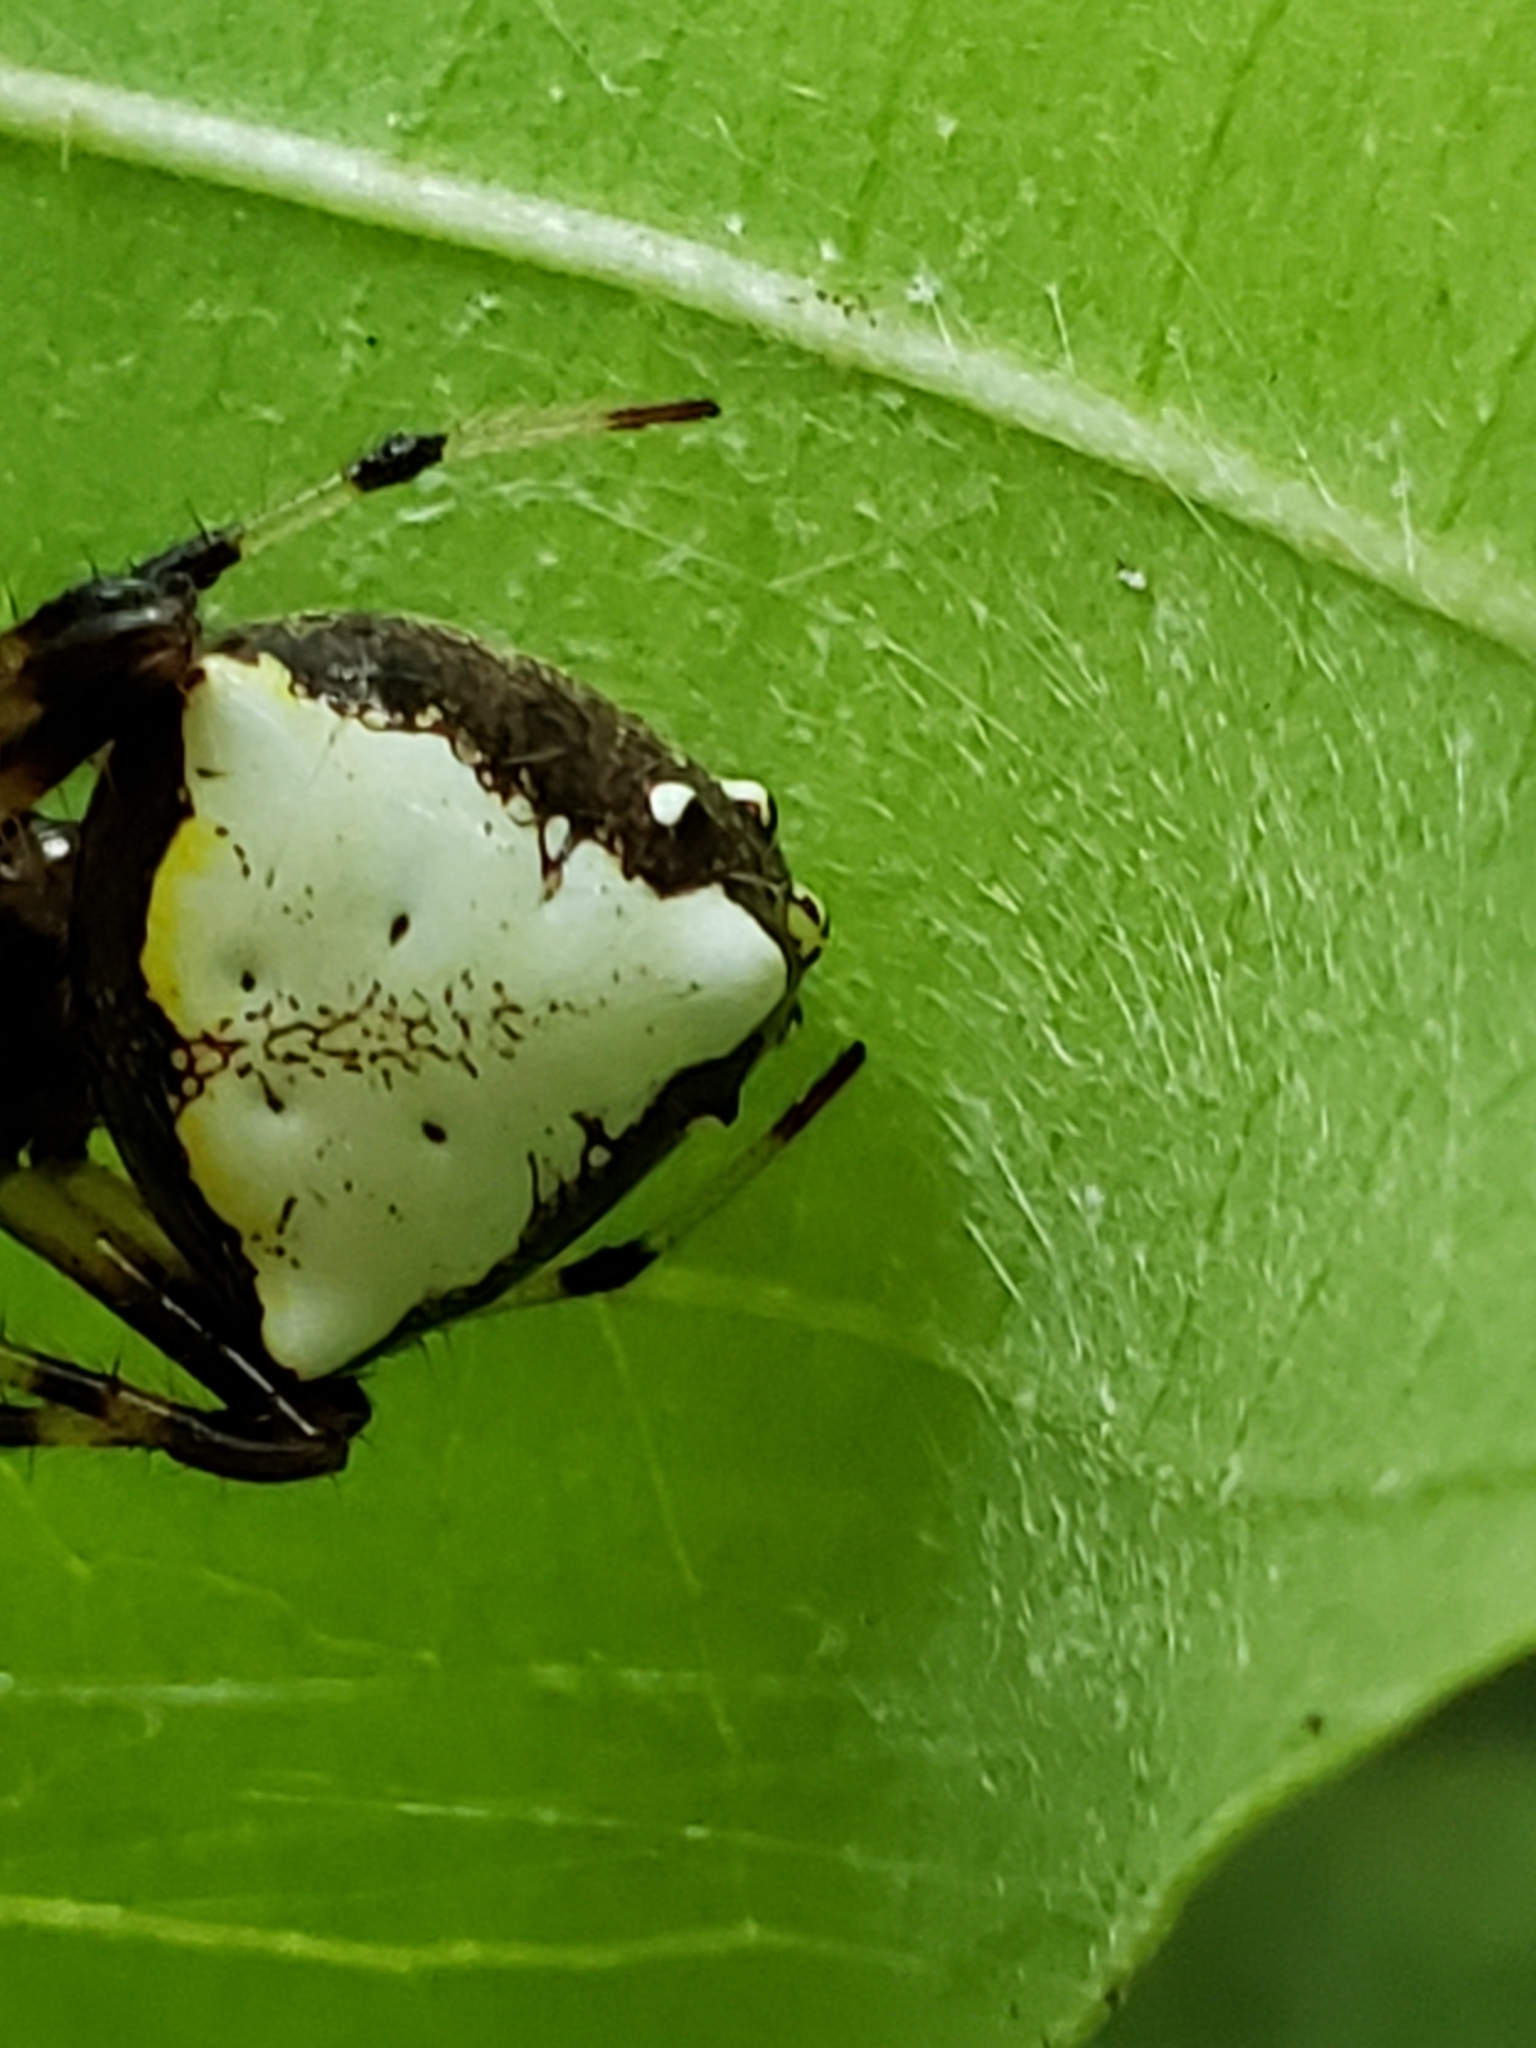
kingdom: Animalia
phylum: Arthropoda
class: Arachnida
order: Araneae
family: Araneidae
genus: Verrucosa
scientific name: Verrucosa arenata
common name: Orb weavers
